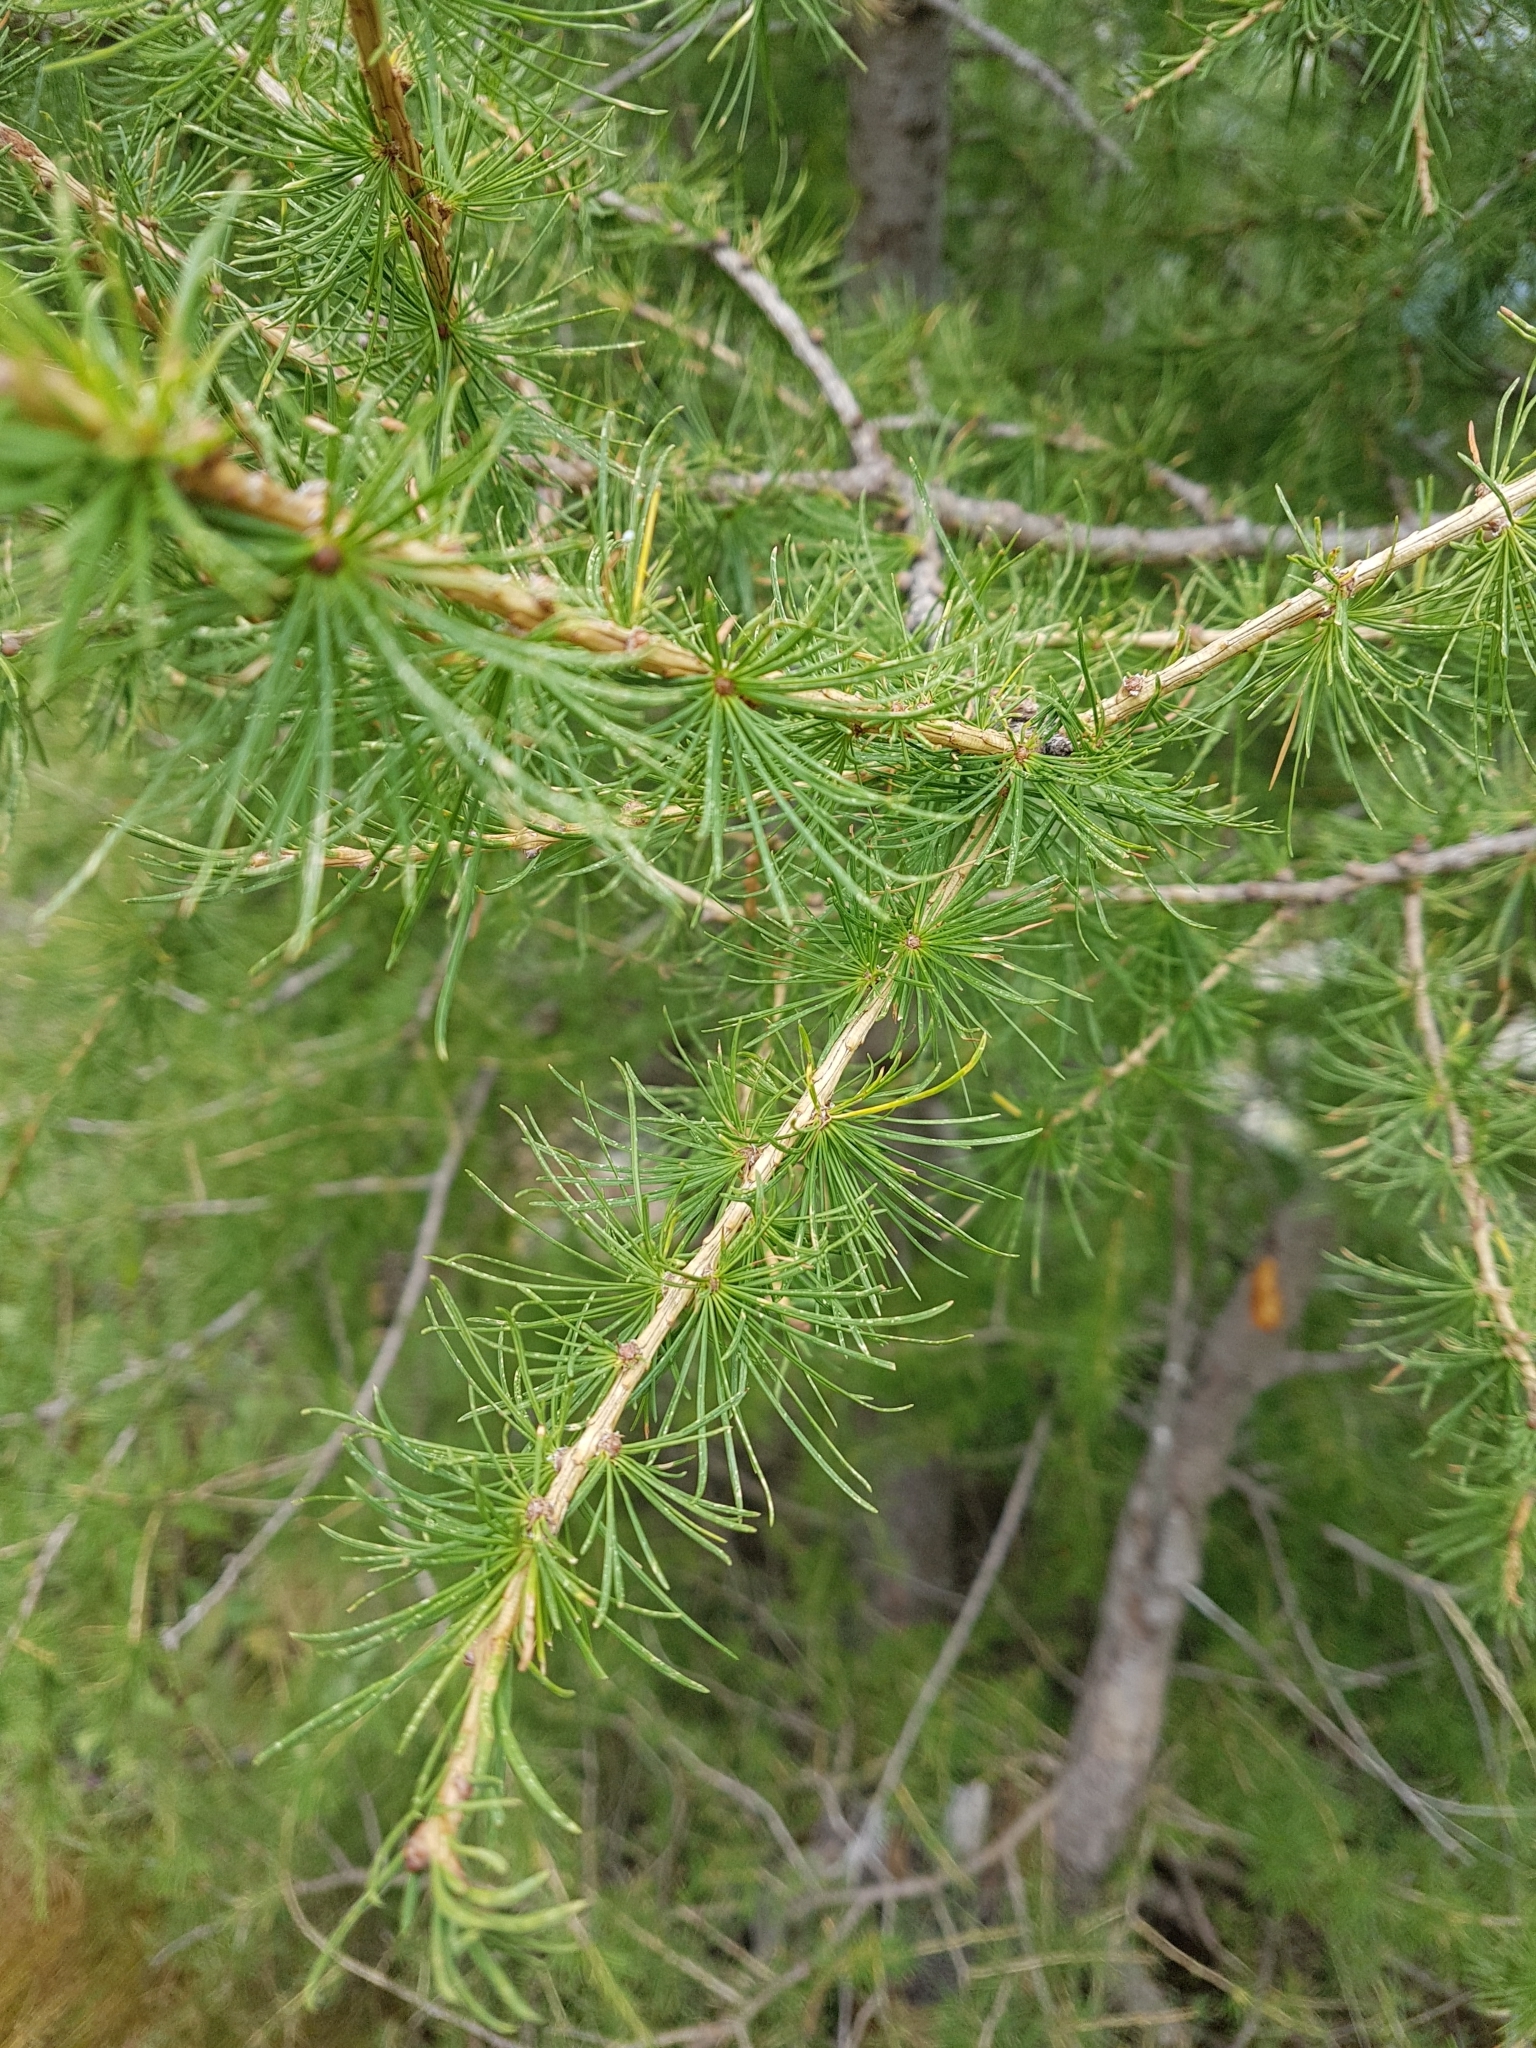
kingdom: Plantae
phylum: Tracheophyta
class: Pinopsida
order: Pinales
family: Pinaceae
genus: Larix
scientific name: Larix decidua
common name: European larch
